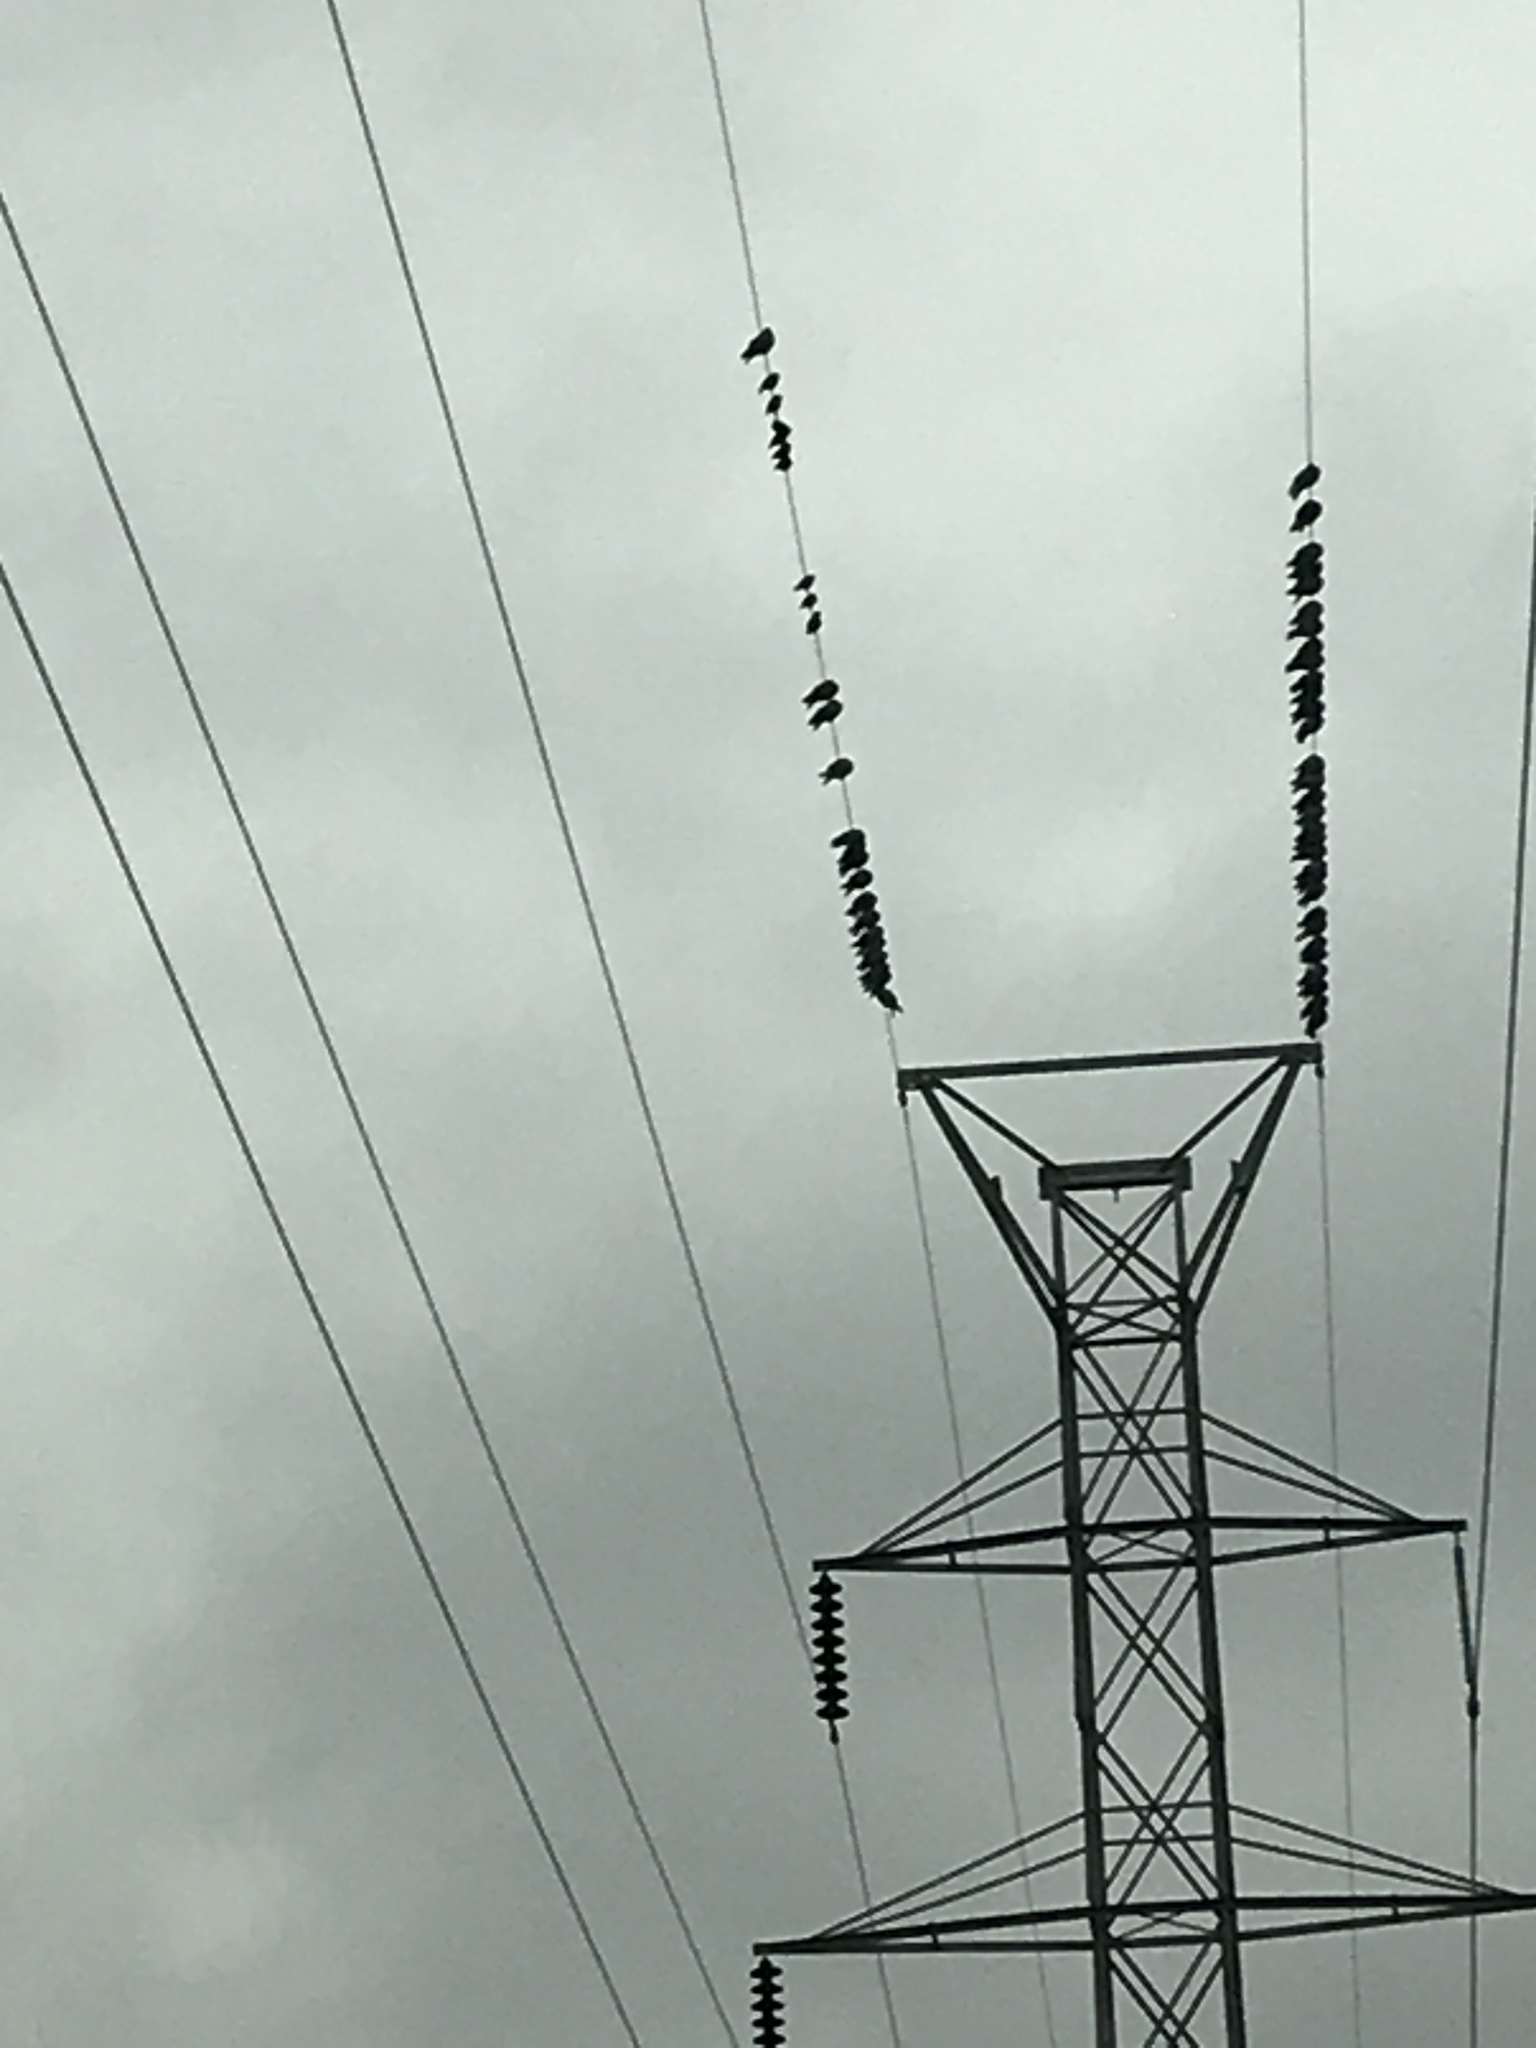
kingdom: Animalia
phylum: Chordata
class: Aves
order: Columbiformes
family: Columbidae
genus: Columba
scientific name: Columba livia
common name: Rock pigeon
